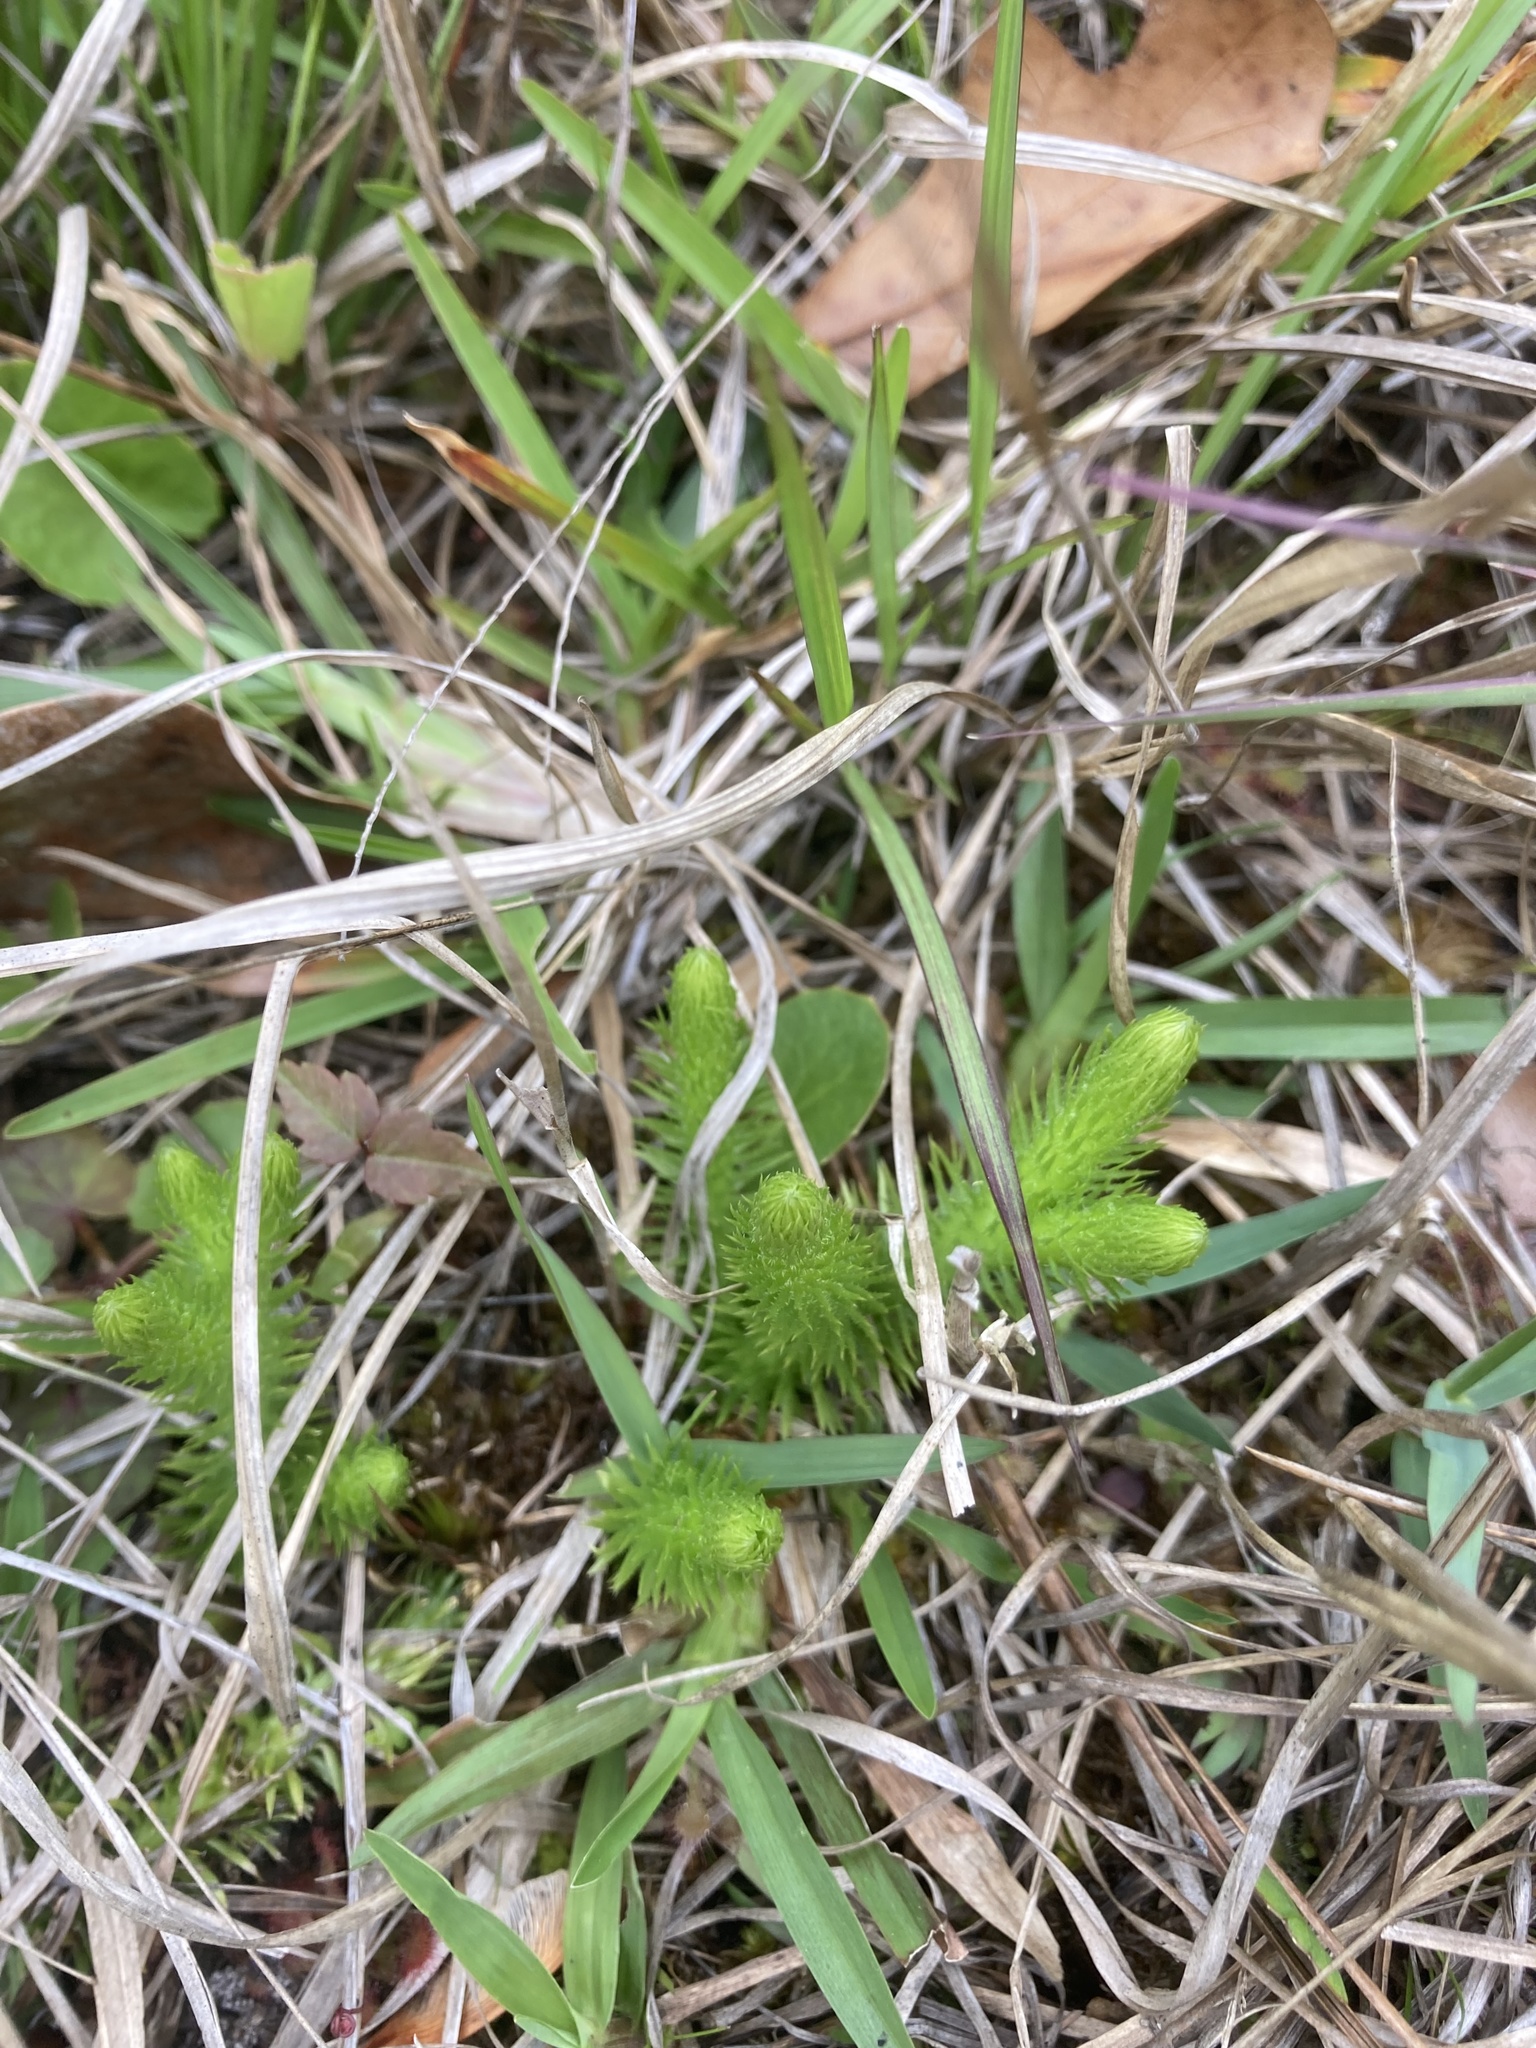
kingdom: Plantae
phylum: Tracheophyta
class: Lycopodiopsida
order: Lycopodiales
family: Lycopodiaceae
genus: Lycopodiella
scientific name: Lycopodiella alopecuroides
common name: Foxtail clubmoss
